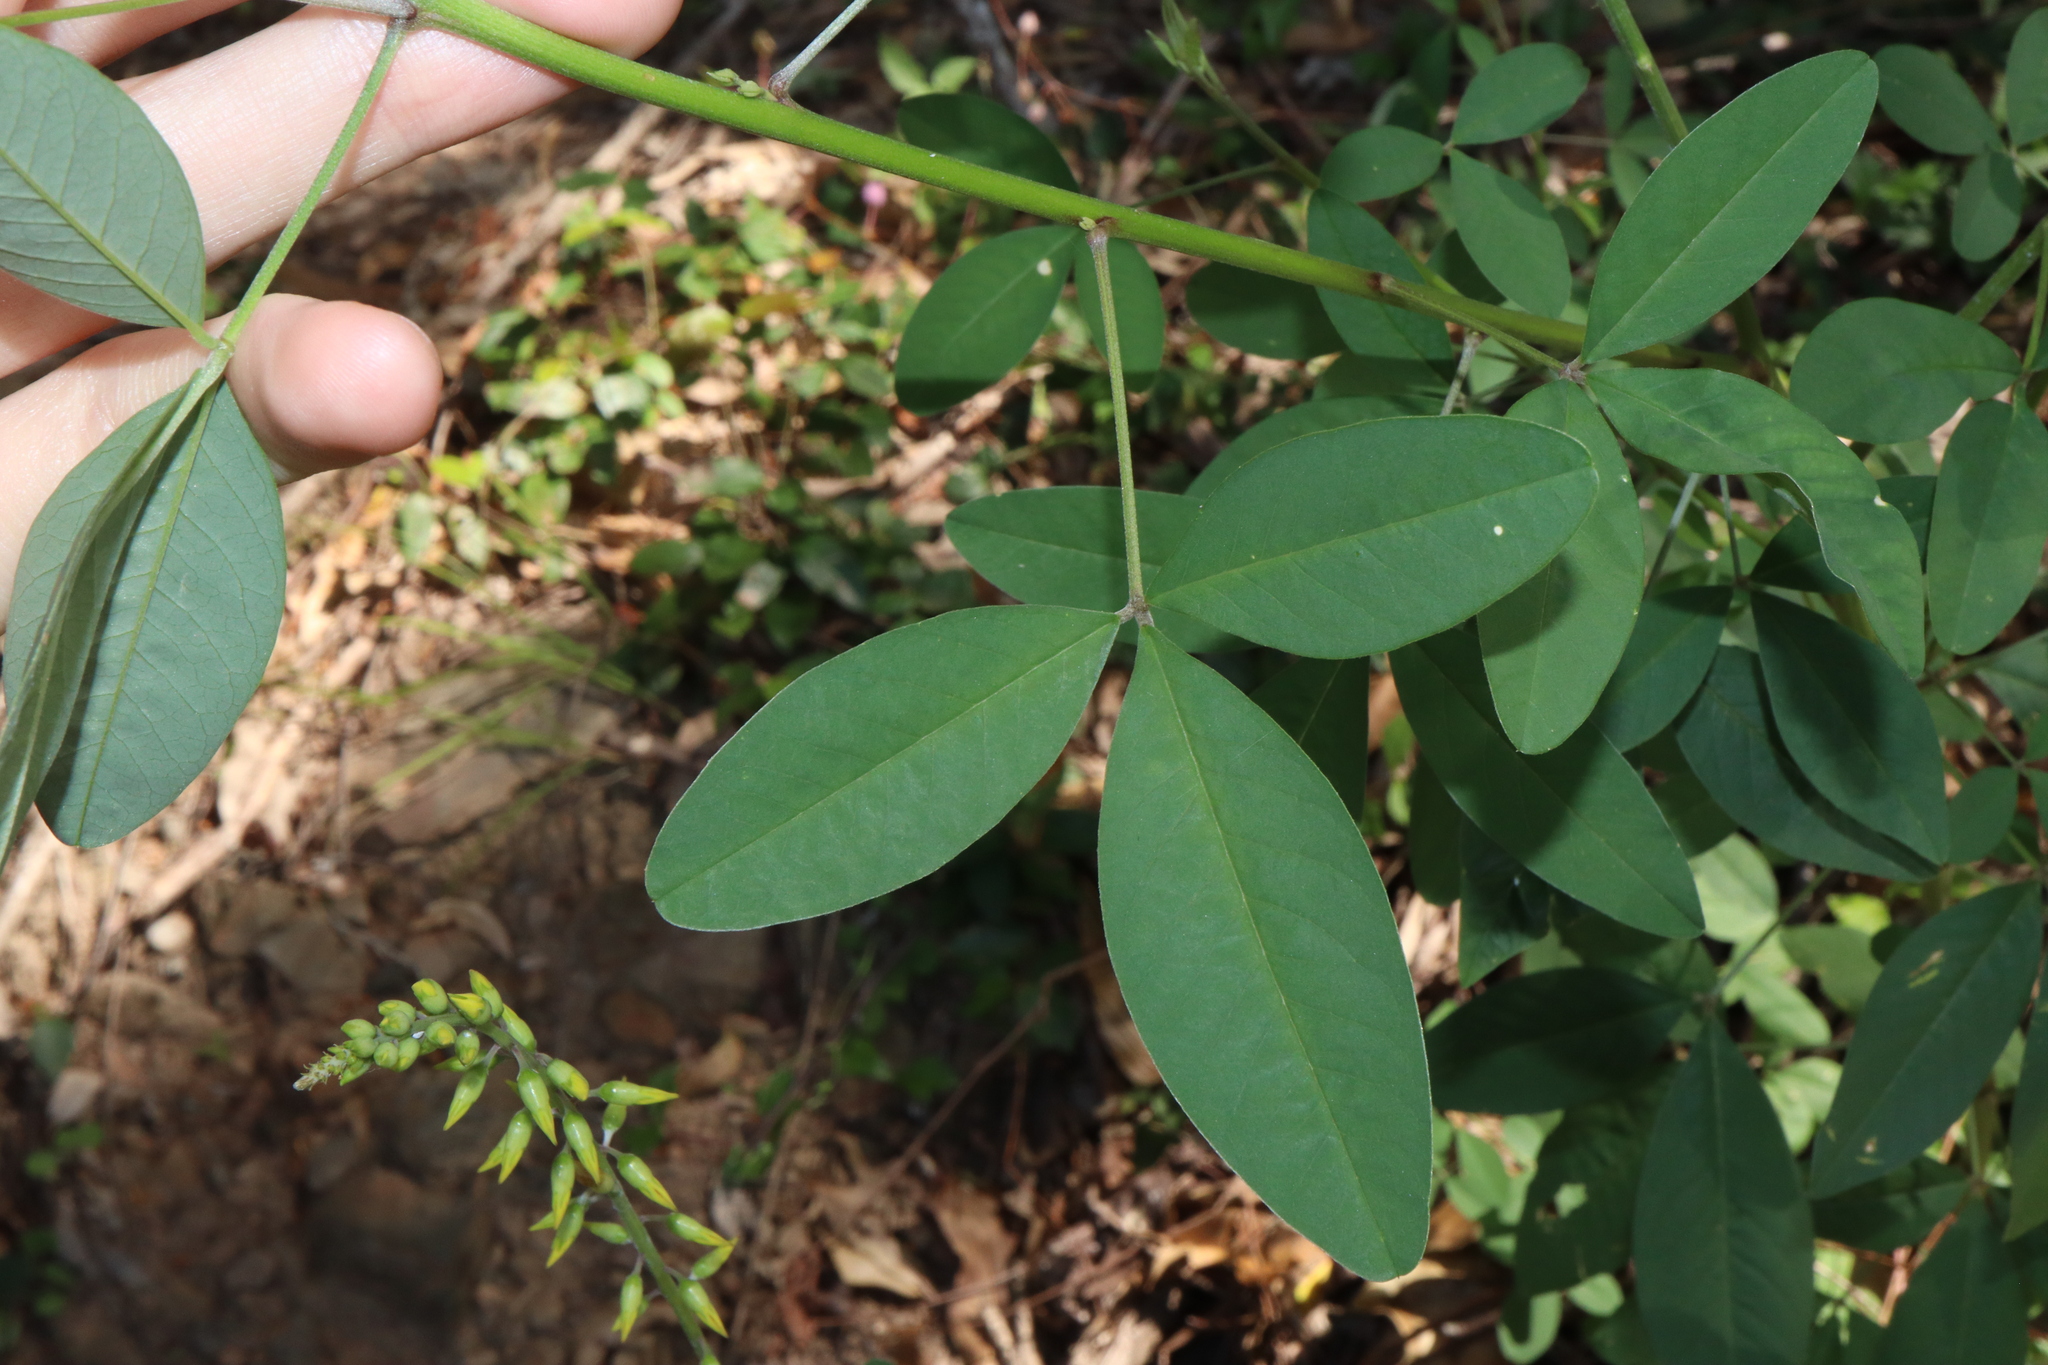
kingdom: Plantae
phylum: Tracheophyta
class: Magnoliopsida
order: Fabales
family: Fabaceae
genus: Crotalaria
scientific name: Crotalaria trichotoma
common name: West indian rattlebox
